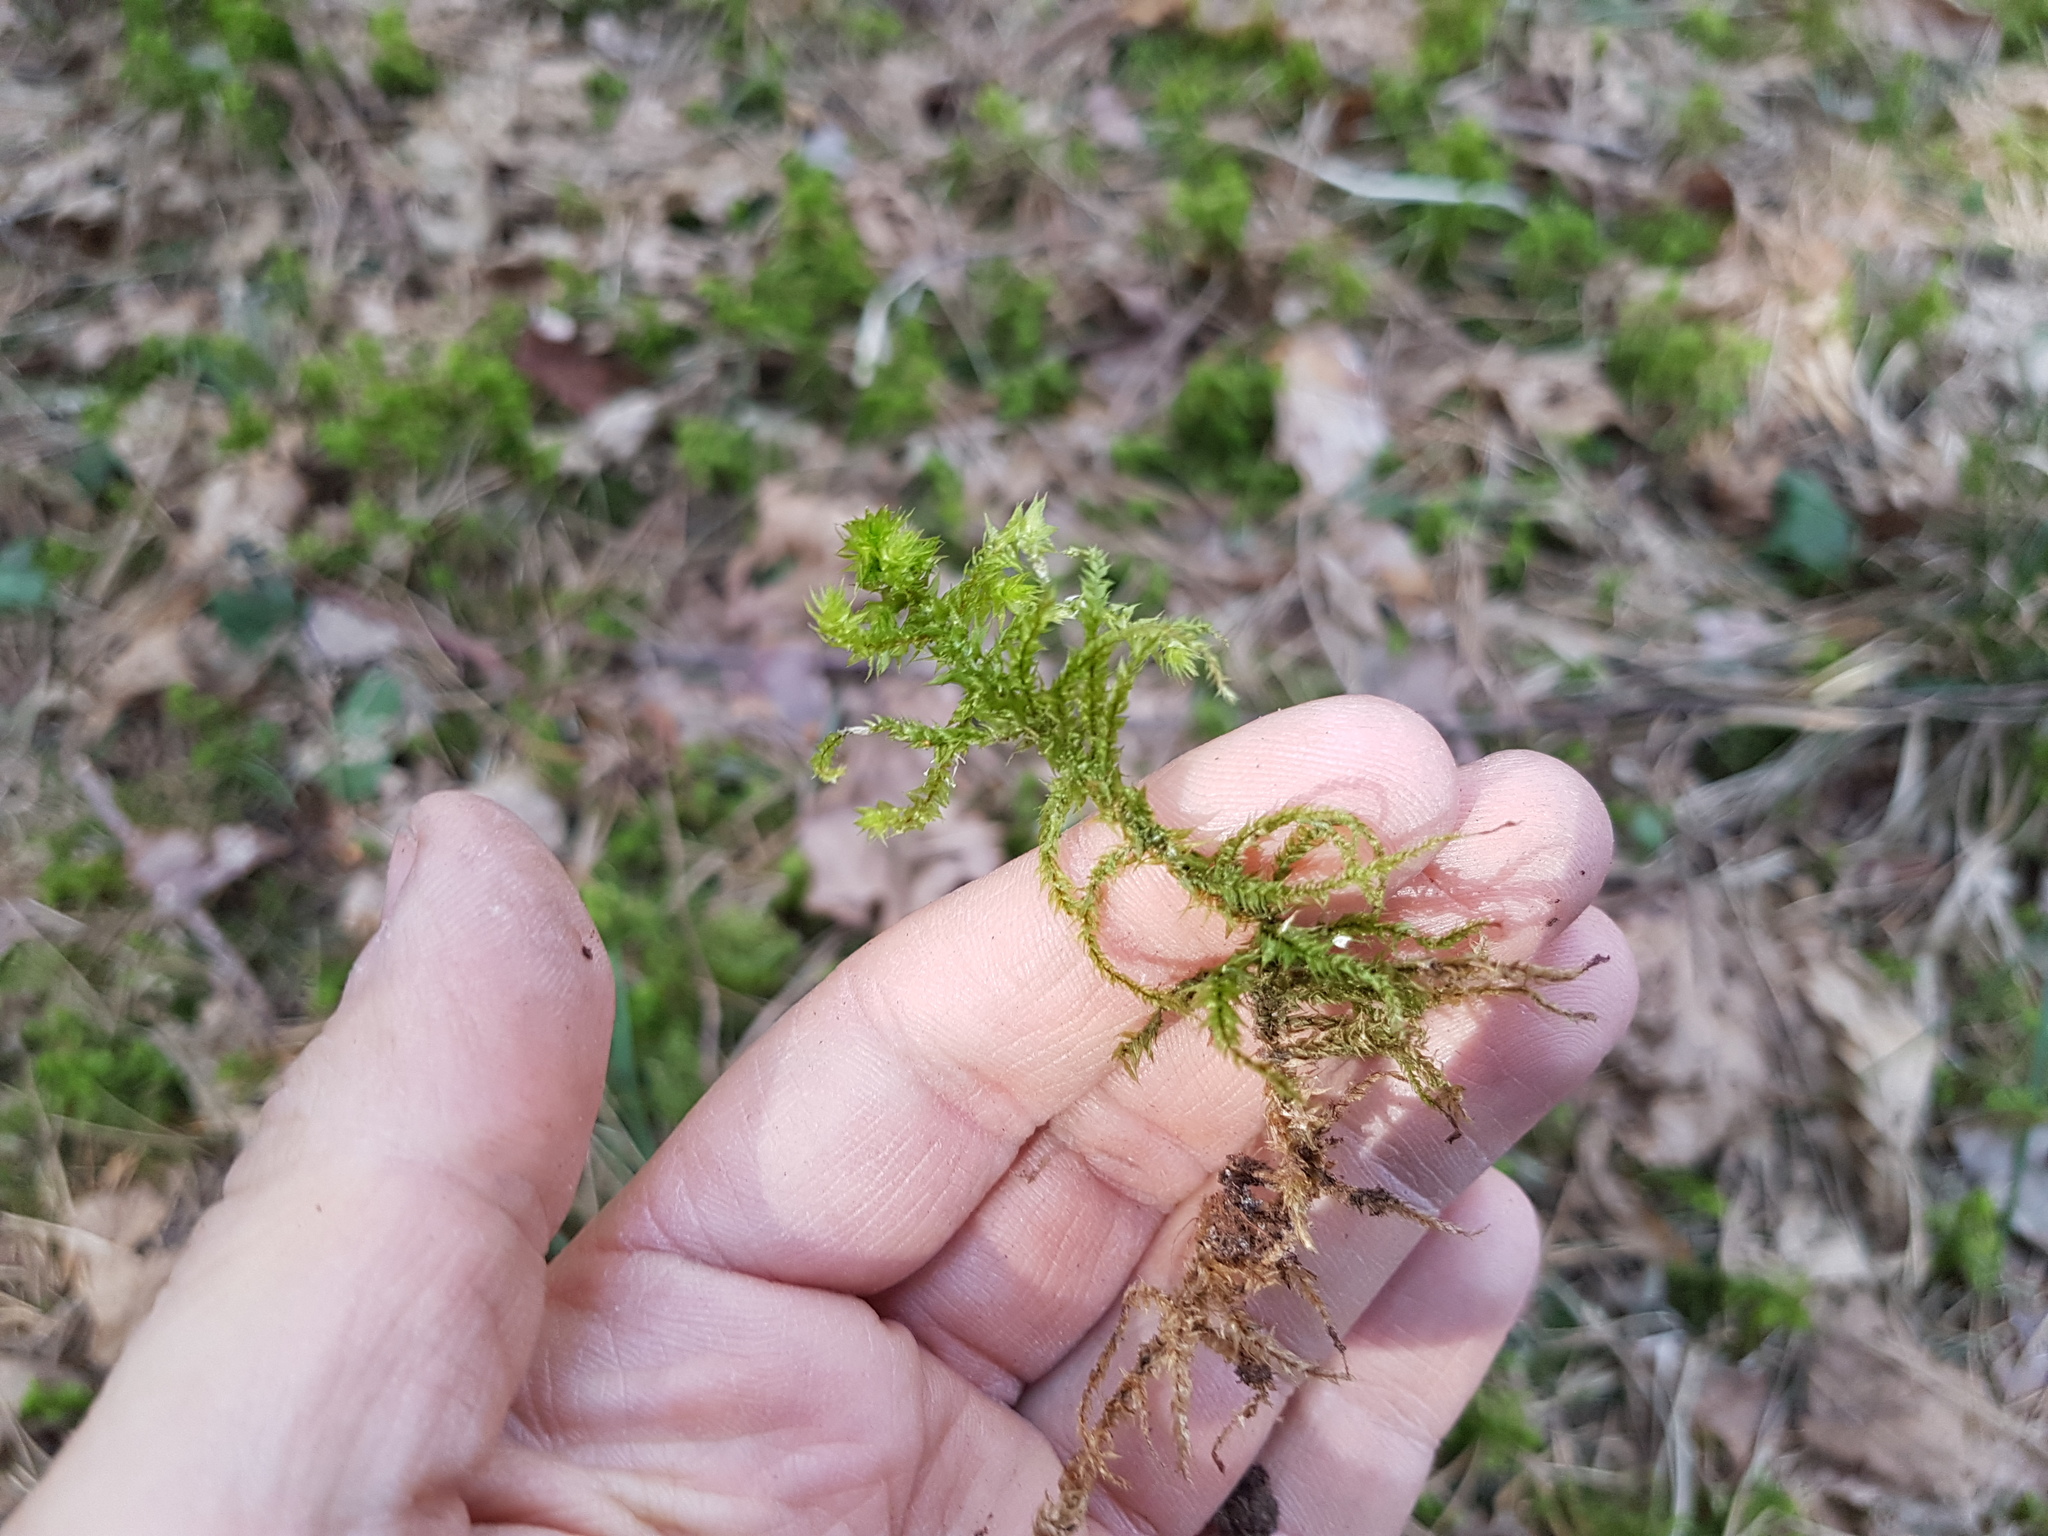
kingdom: Plantae
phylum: Bryophyta
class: Bryopsida
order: Hypnales
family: Hylocomiaceae
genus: Hylocomiadelphus
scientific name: Hylocomiadelphus triquetrus
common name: Rough goose neck moss
